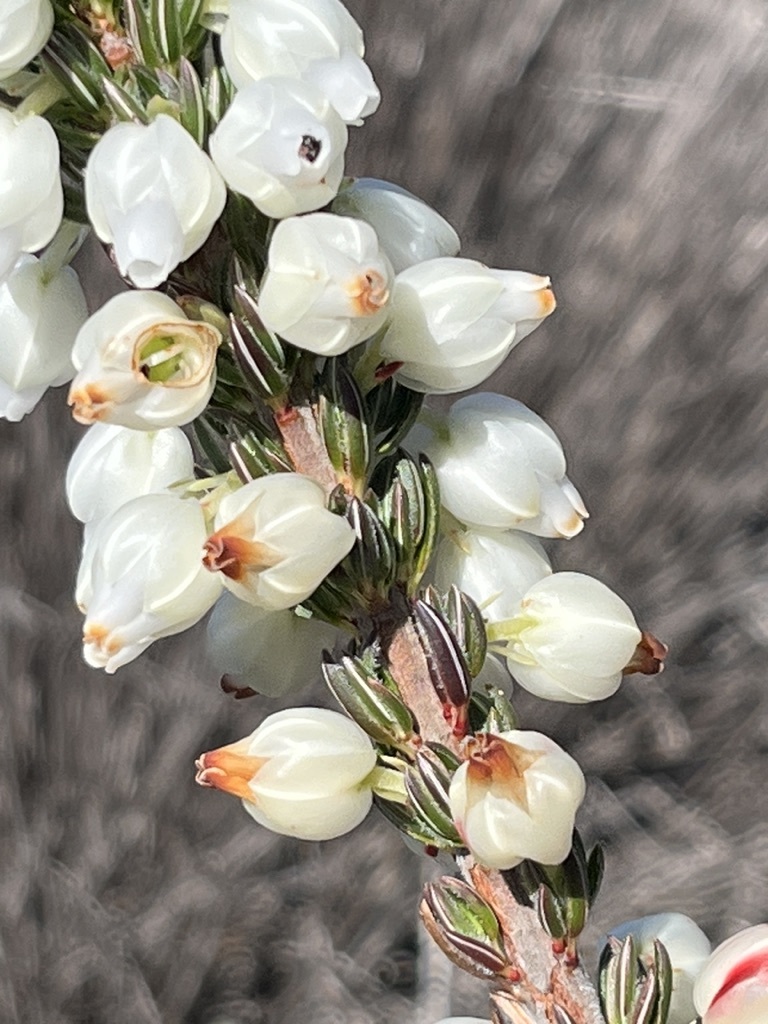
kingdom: Plantae
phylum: Tracheophyta
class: Magnoliopsida
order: Ericales
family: Ericaceae
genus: Erica
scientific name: Erica grisbrookii
